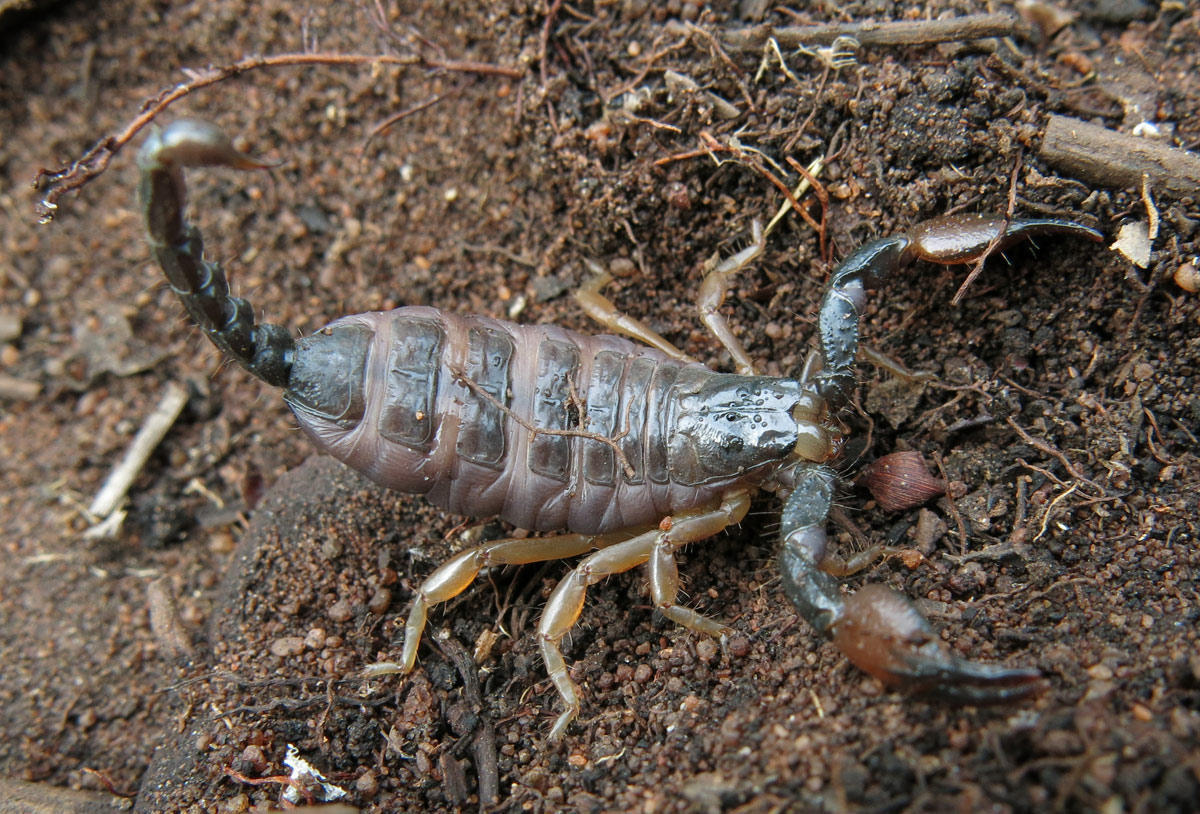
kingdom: Animalia
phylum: Arthropoda
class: Arachnida
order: Scorpiones
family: Scorpionidae
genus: Opistophthalmus
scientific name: Opistophthalmus lawrencei
